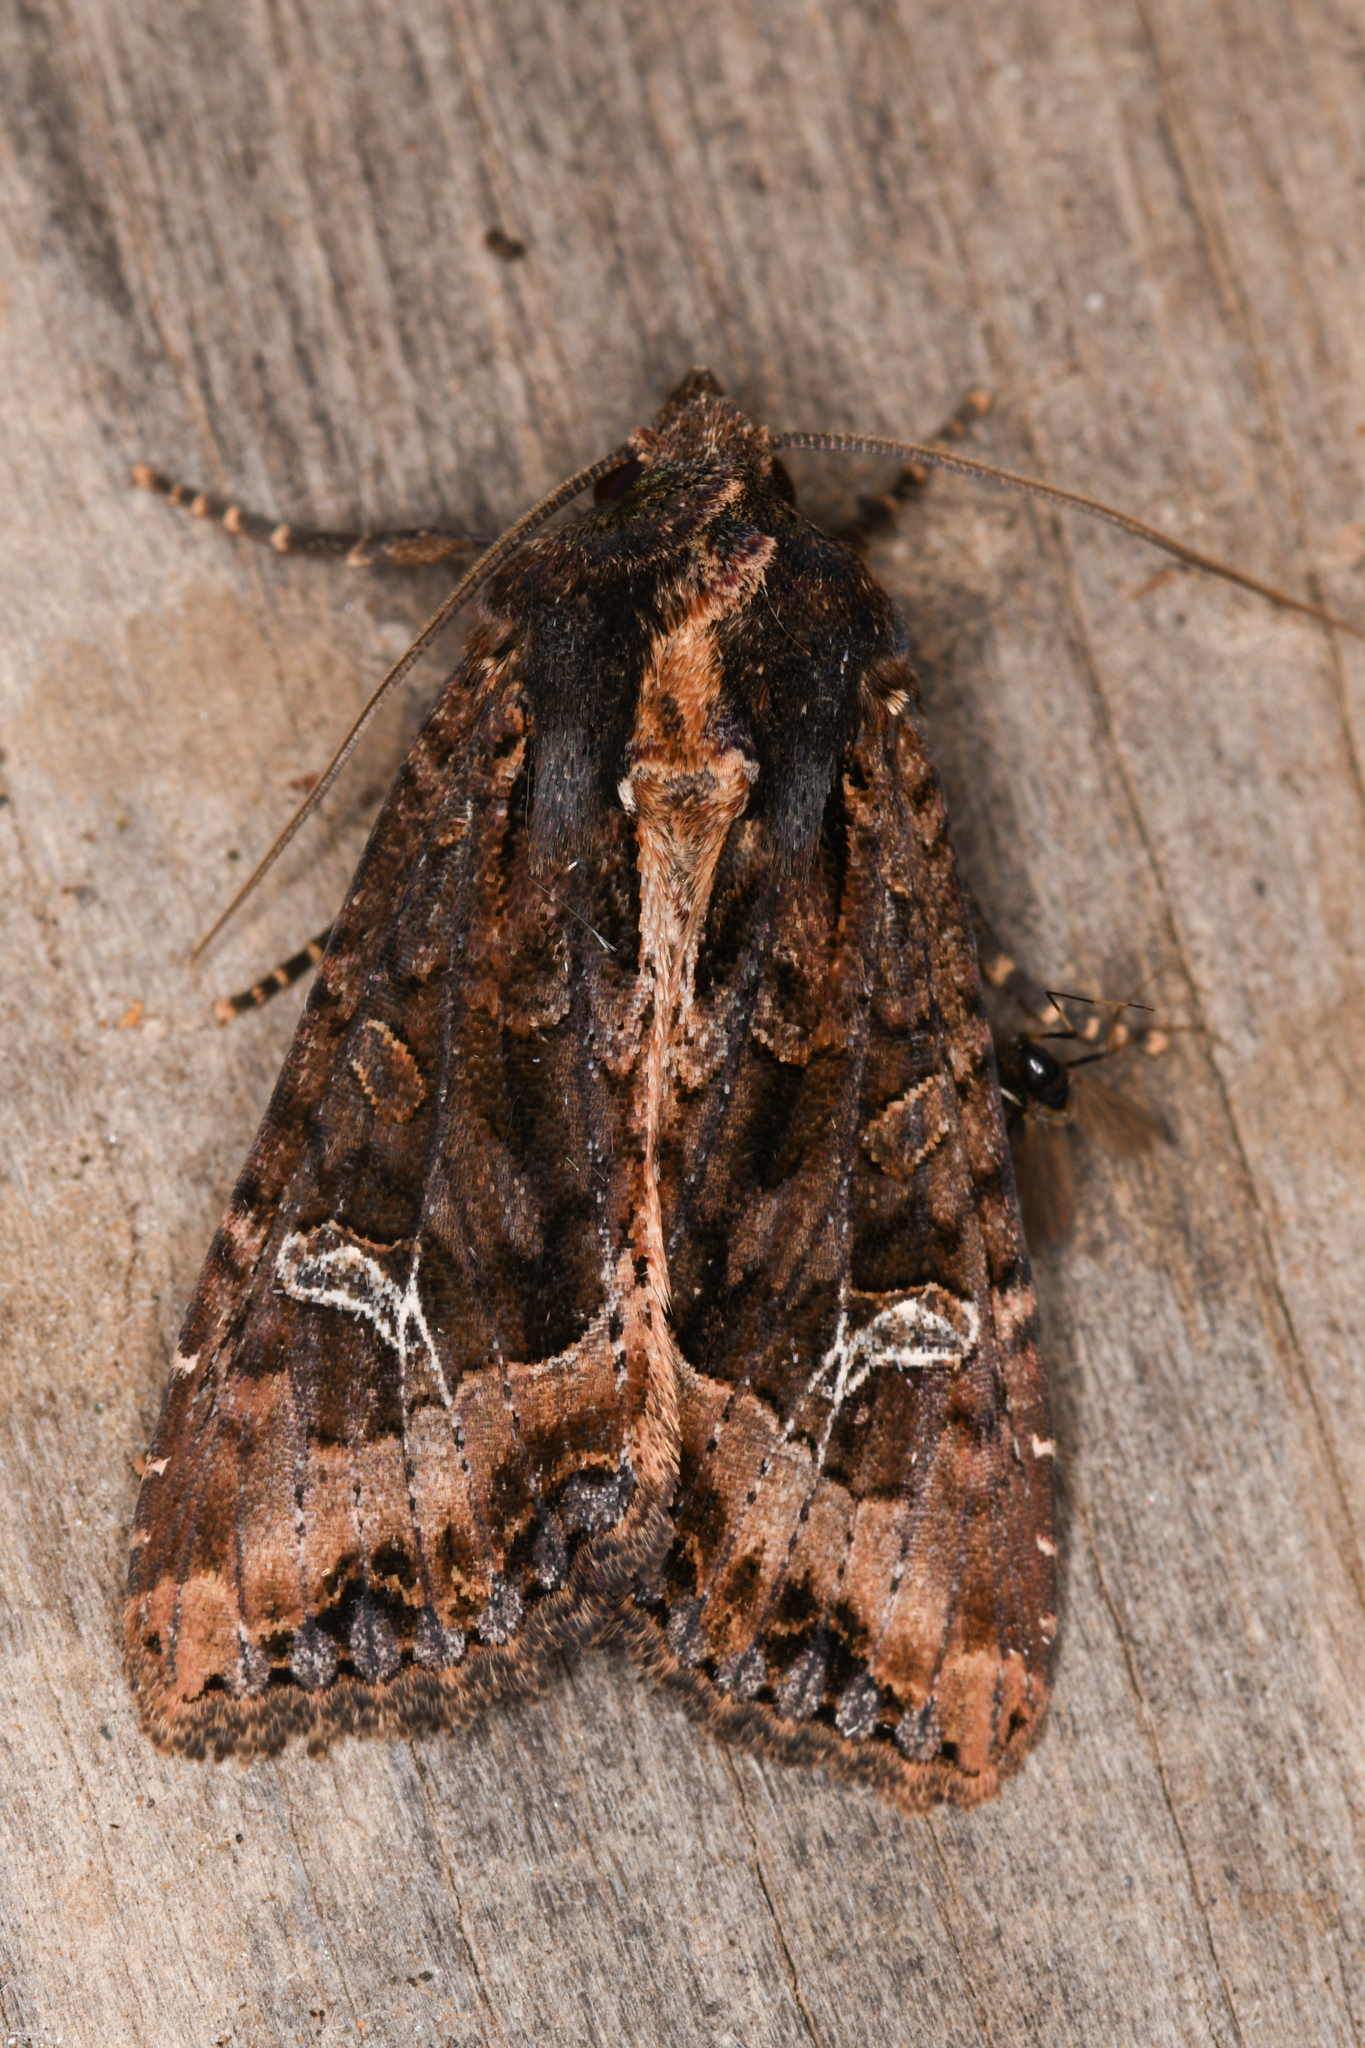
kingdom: Animalia
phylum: Arthropoda
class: Insecta
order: Lepidoptera
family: Noctuidae
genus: Helotropha
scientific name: Helotropha reniformis
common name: Kidney-spotted rustic moth
